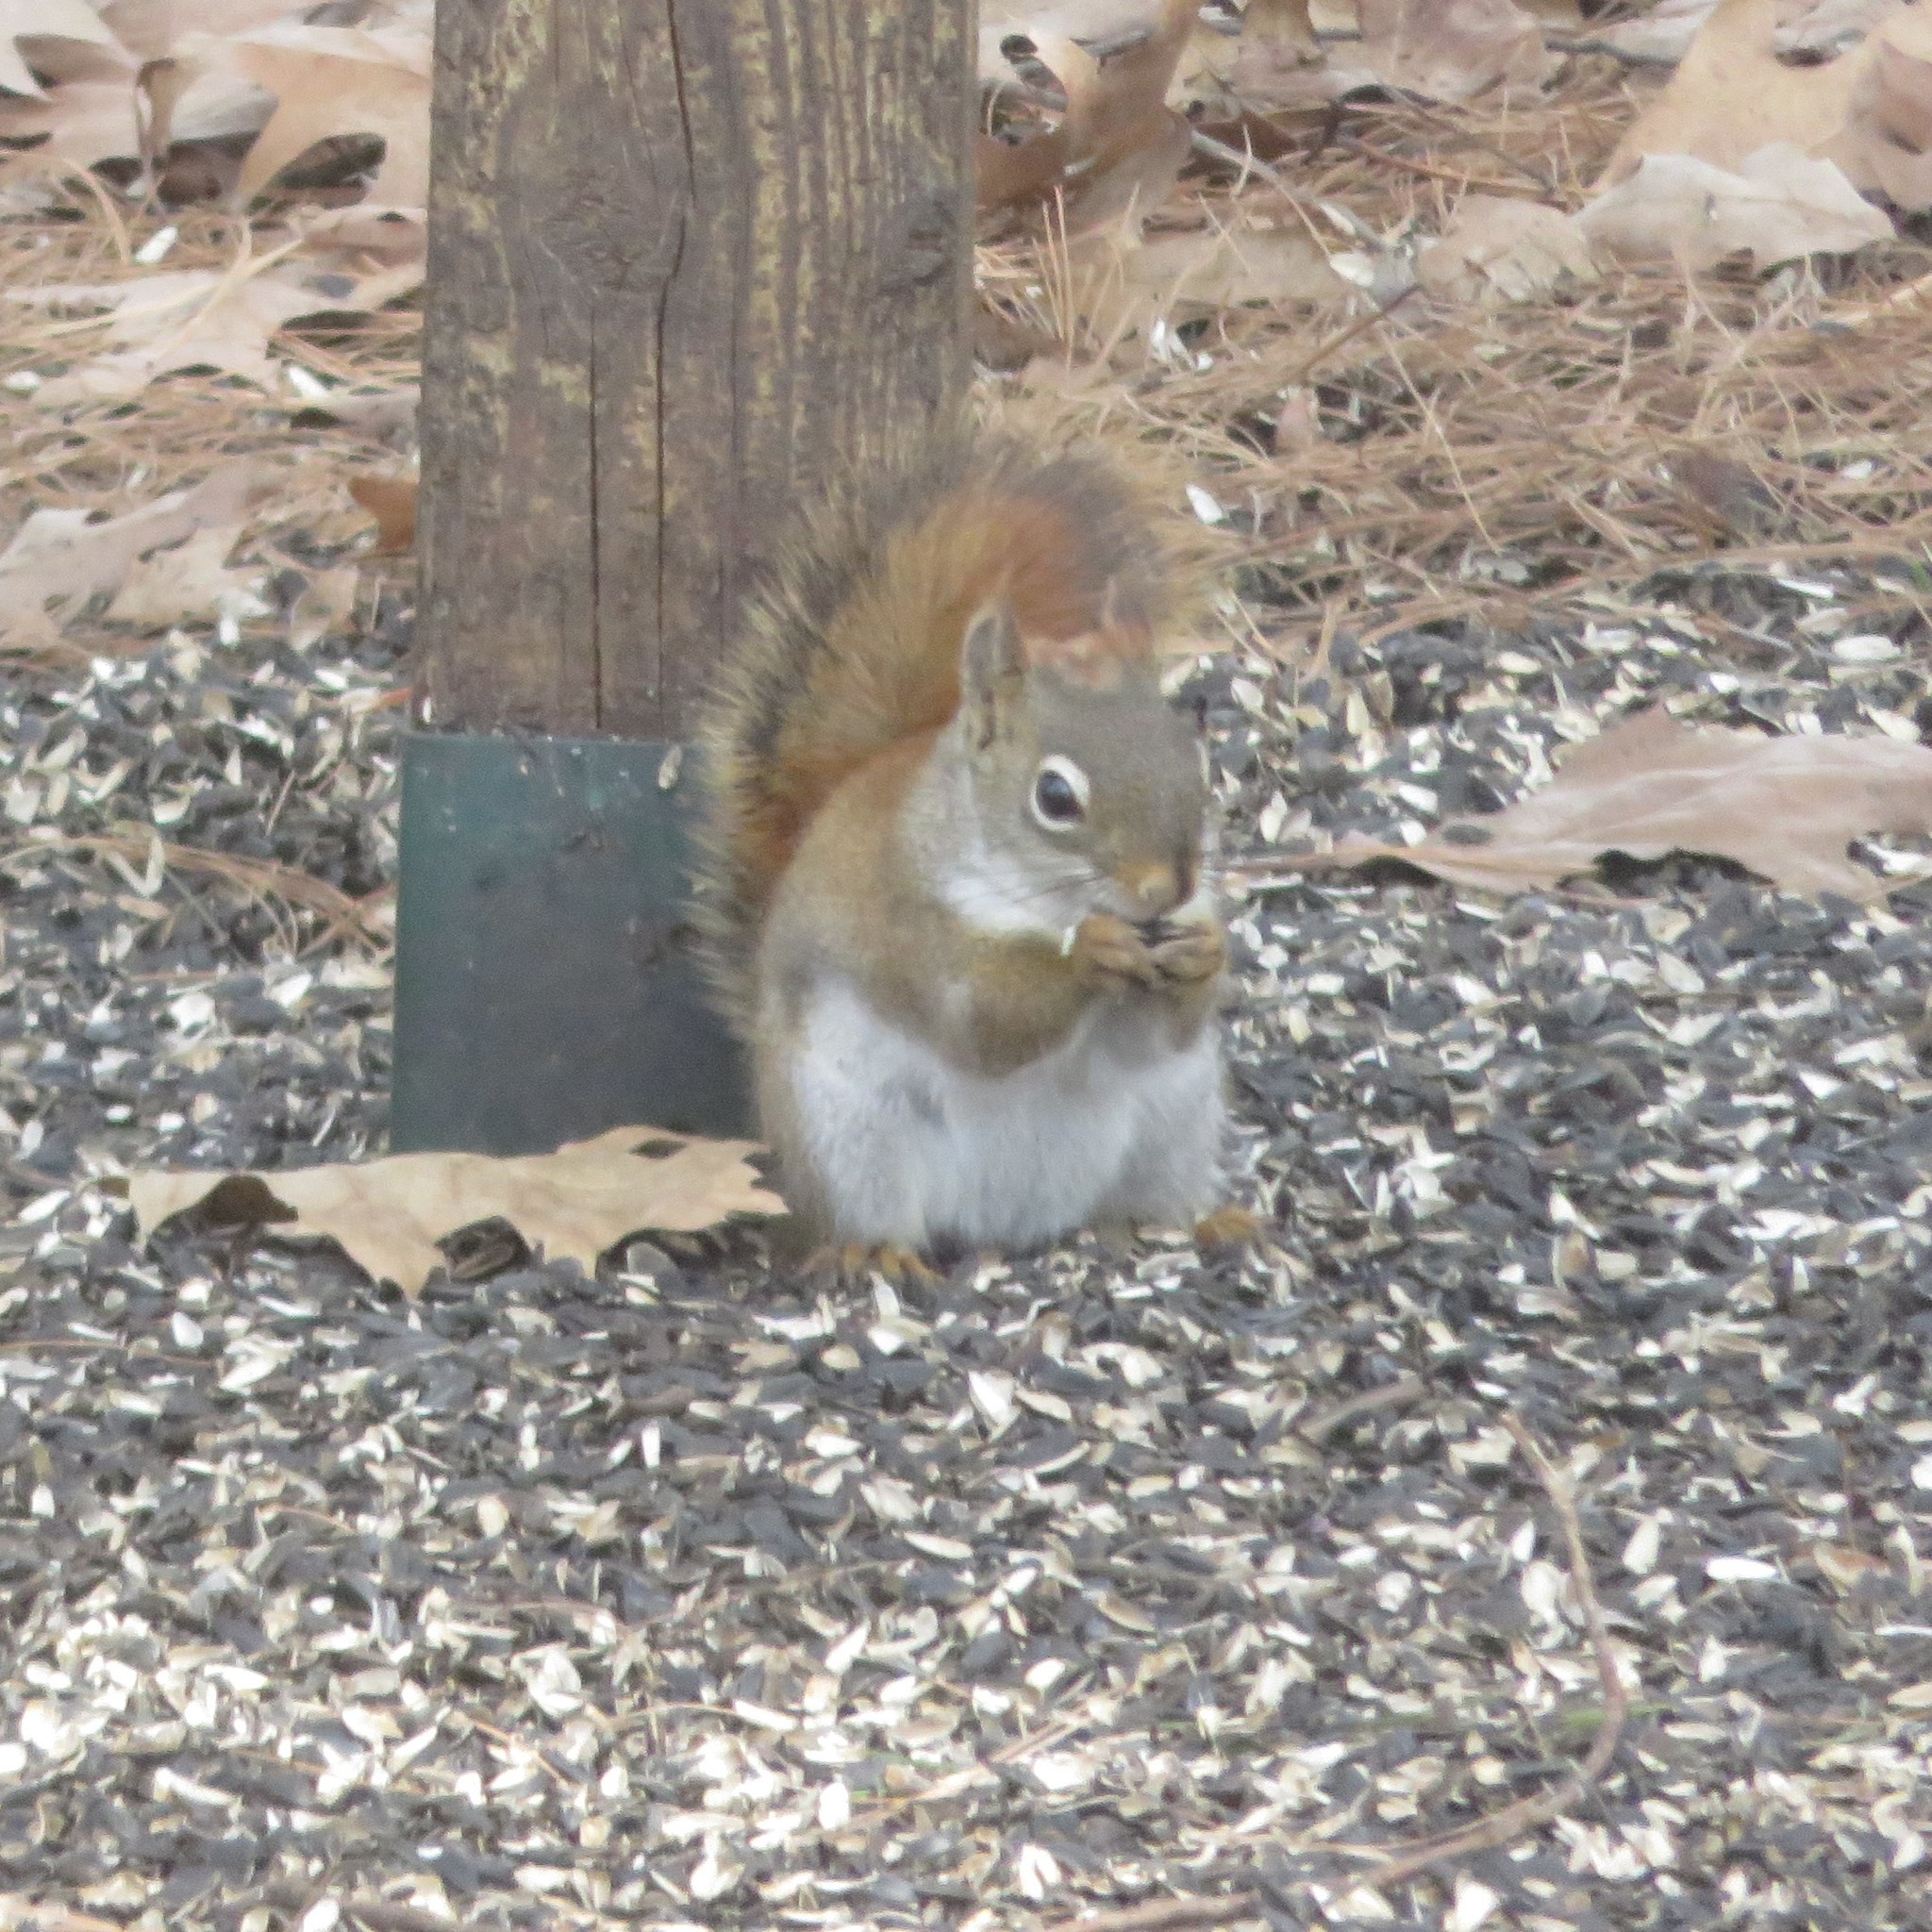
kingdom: Animalia
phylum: Chordata
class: Mammalia
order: Rodentia
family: Sciuridae
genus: Tamiasciurus
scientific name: Tamiasciurus hudsonicus
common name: Red squirrel
